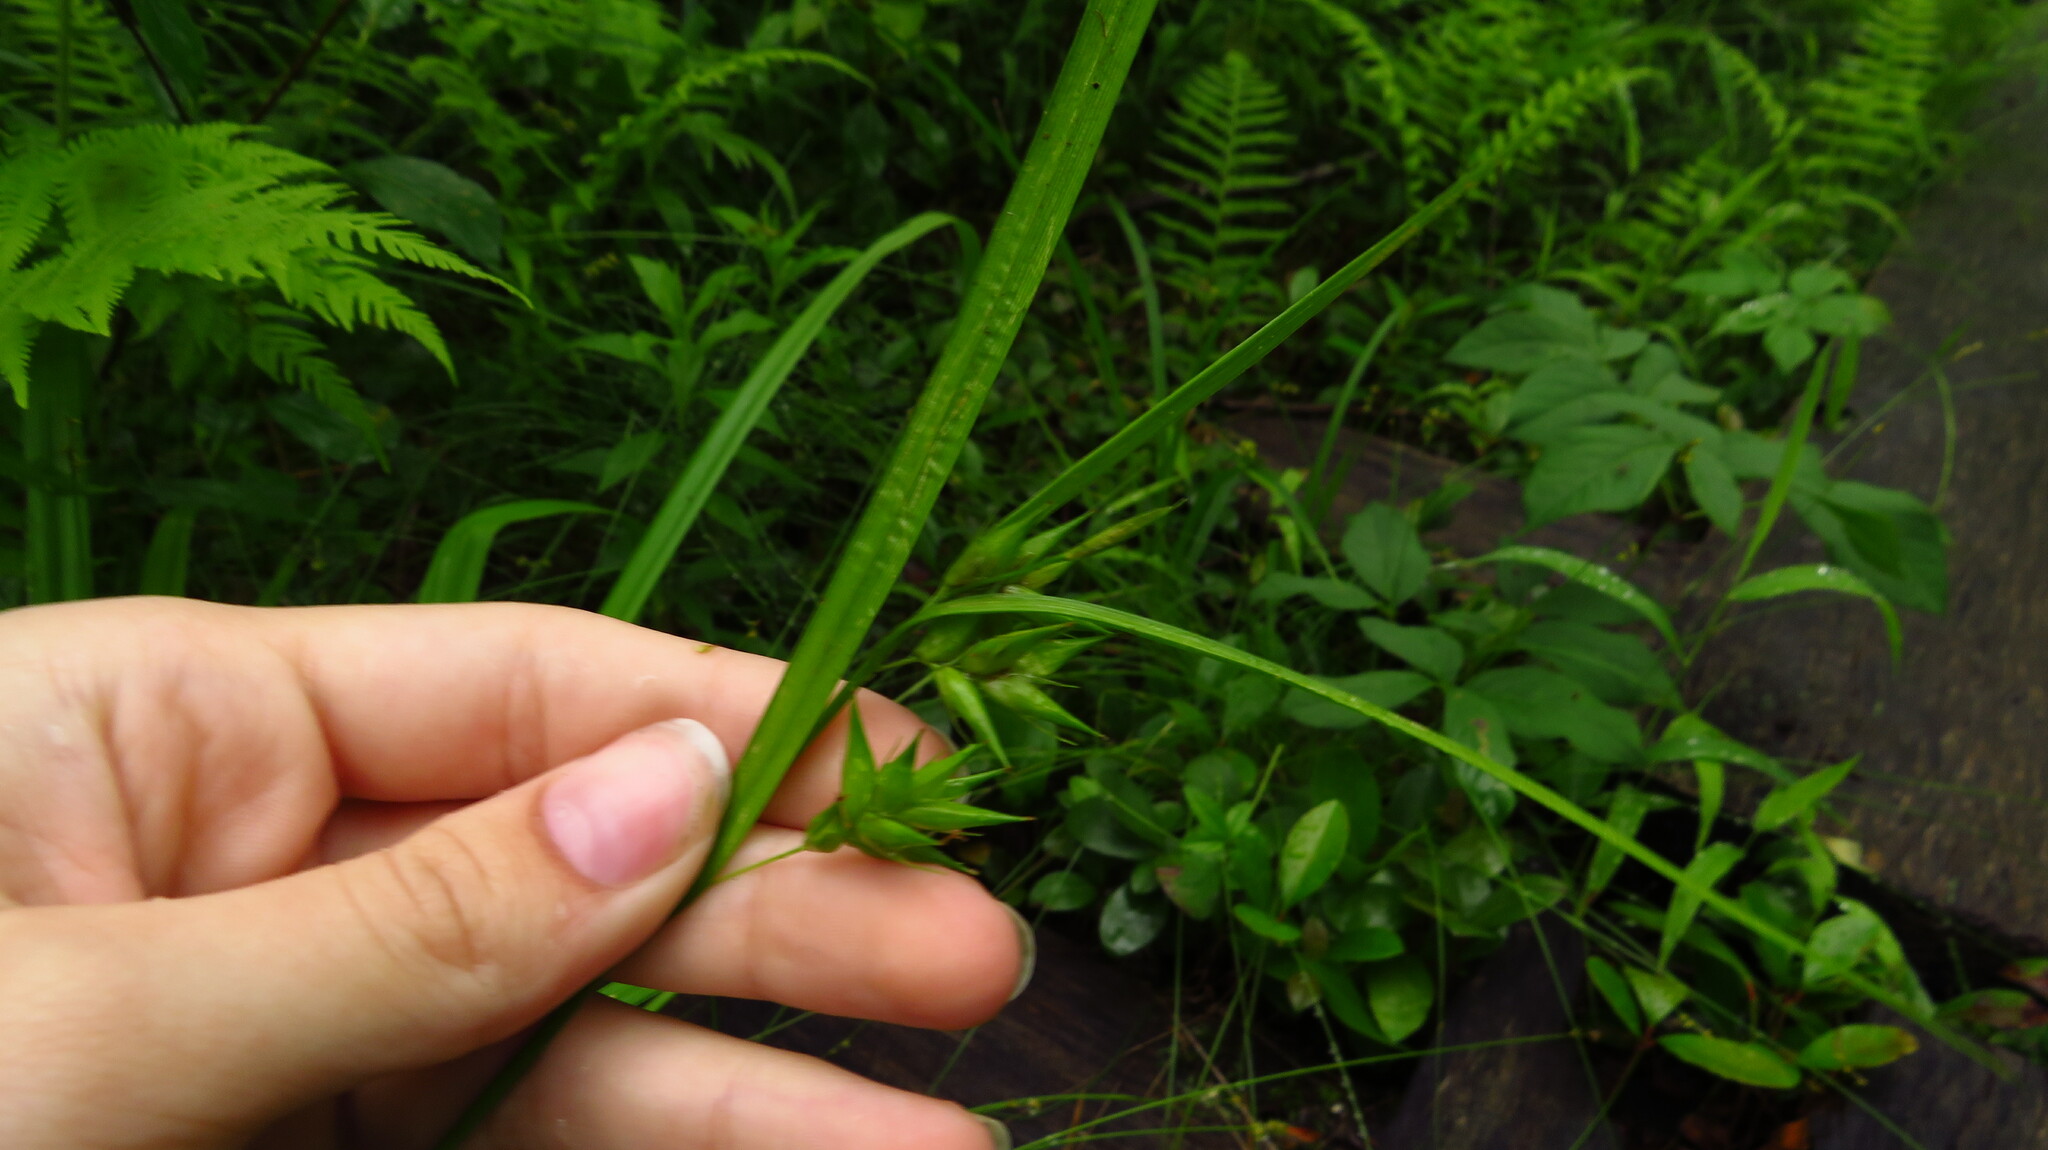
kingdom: Plantae
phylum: Tracheophyta
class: Liliopsida
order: Poales
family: Cyperaceae
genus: Carex
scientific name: Carex folliculata
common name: Northern long sedge
